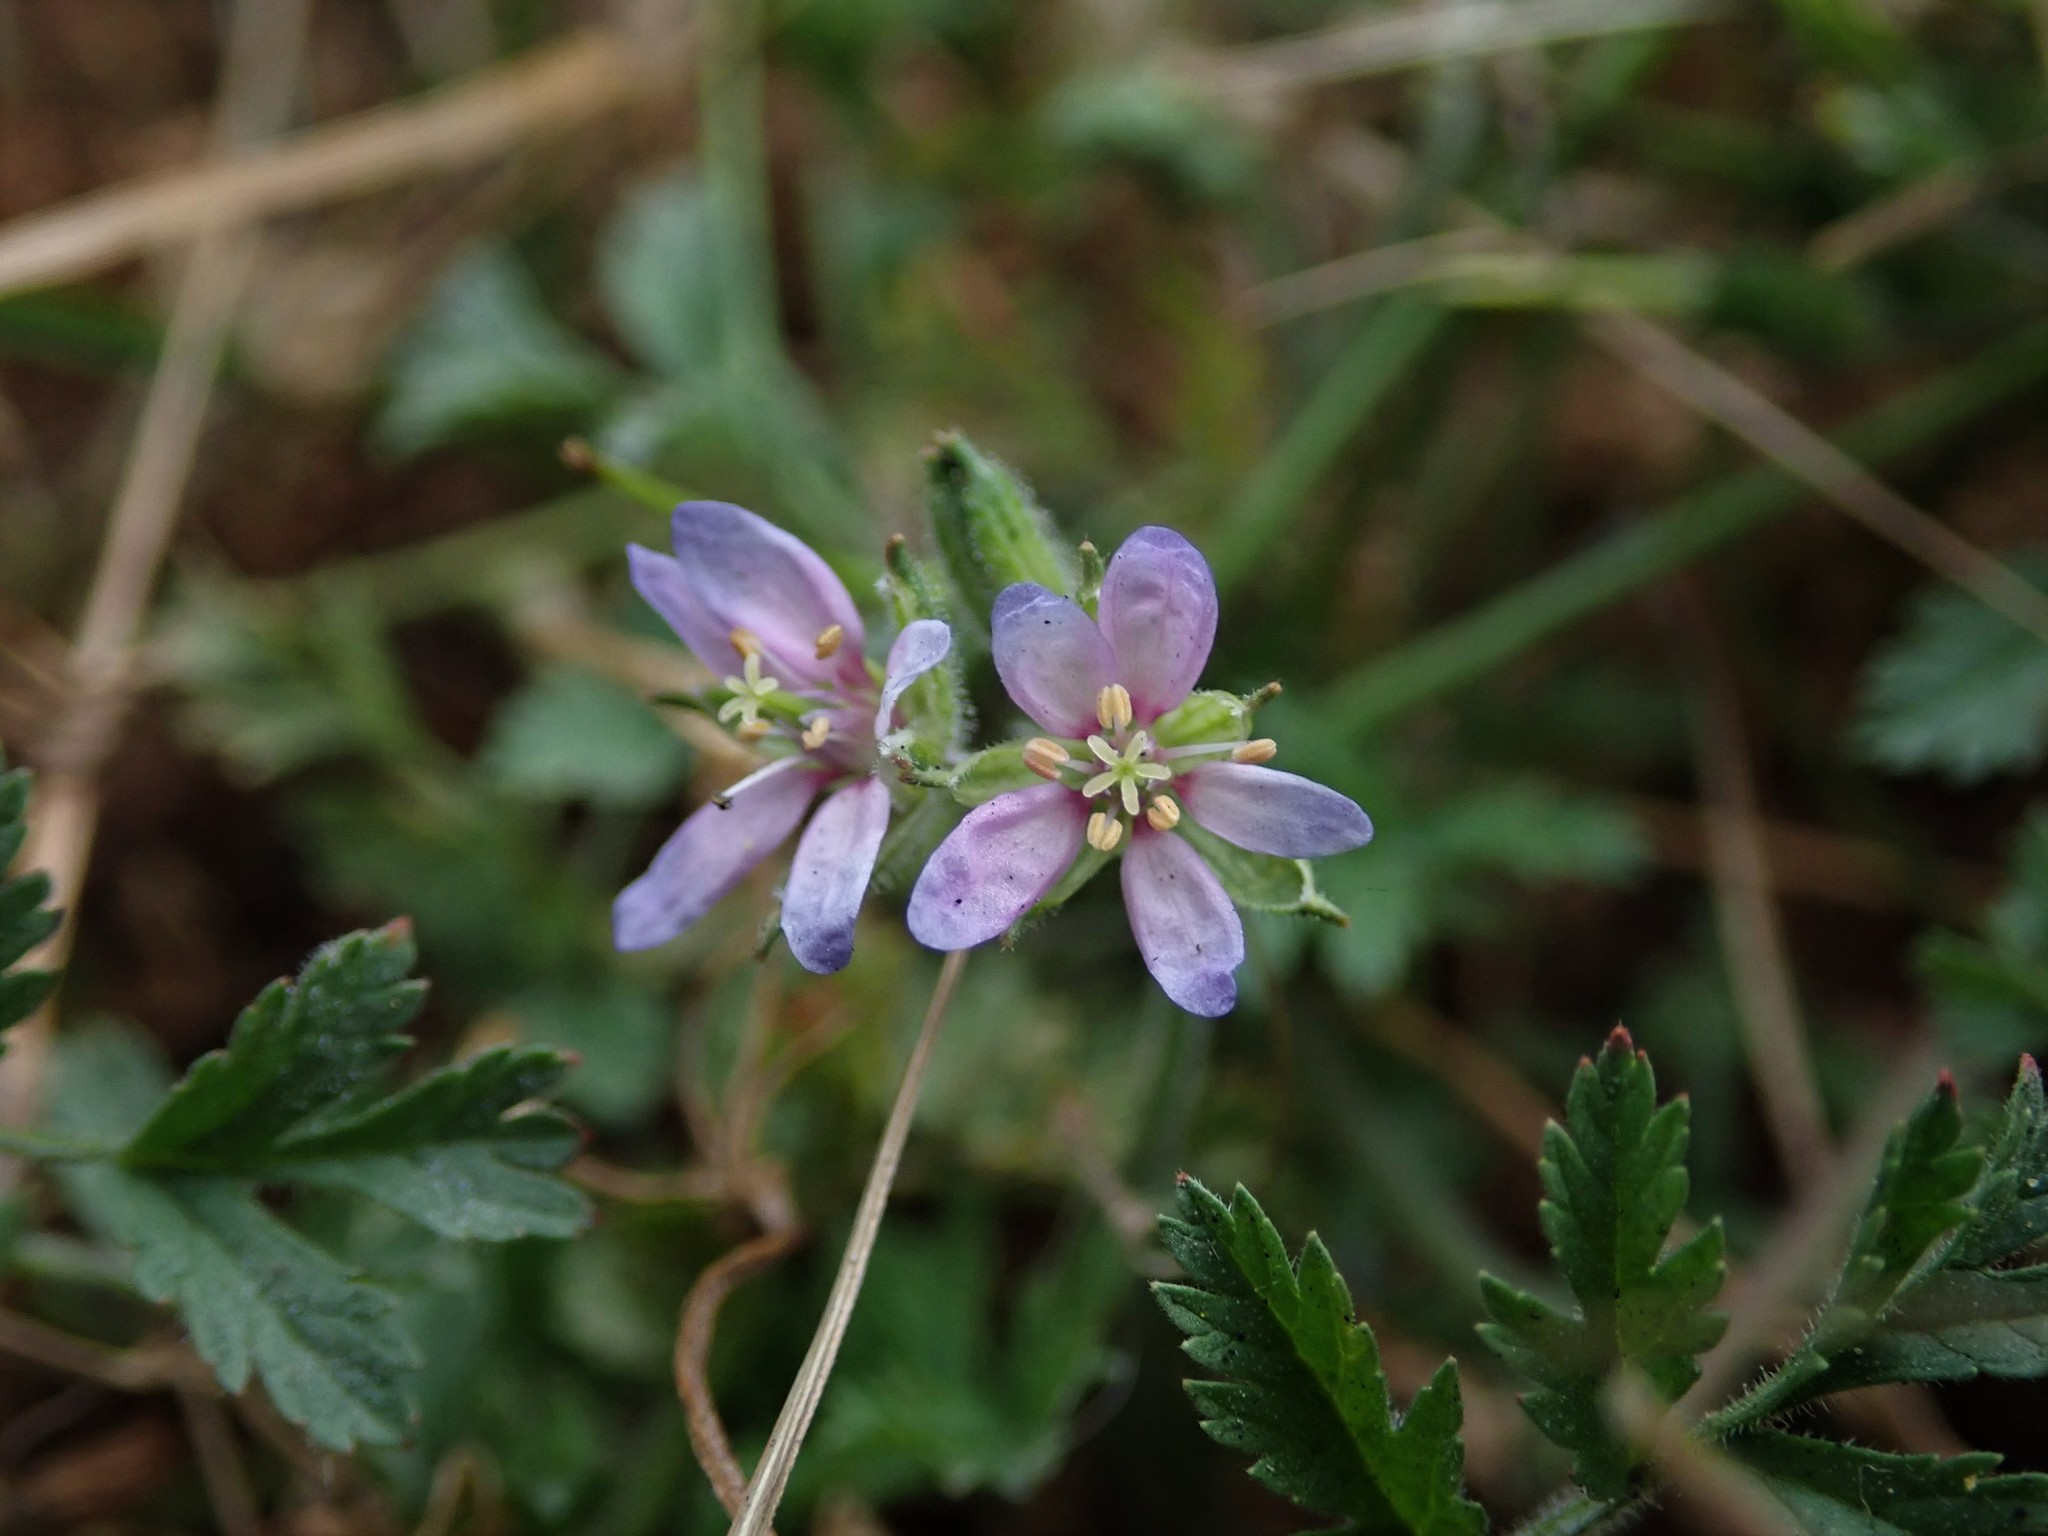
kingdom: Plantae
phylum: Tracheophyta
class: Magnoliopsida
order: Geraniales
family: Geraniaceae
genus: Erodium
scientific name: Erodium moschatum
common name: Musk stork's-bill
